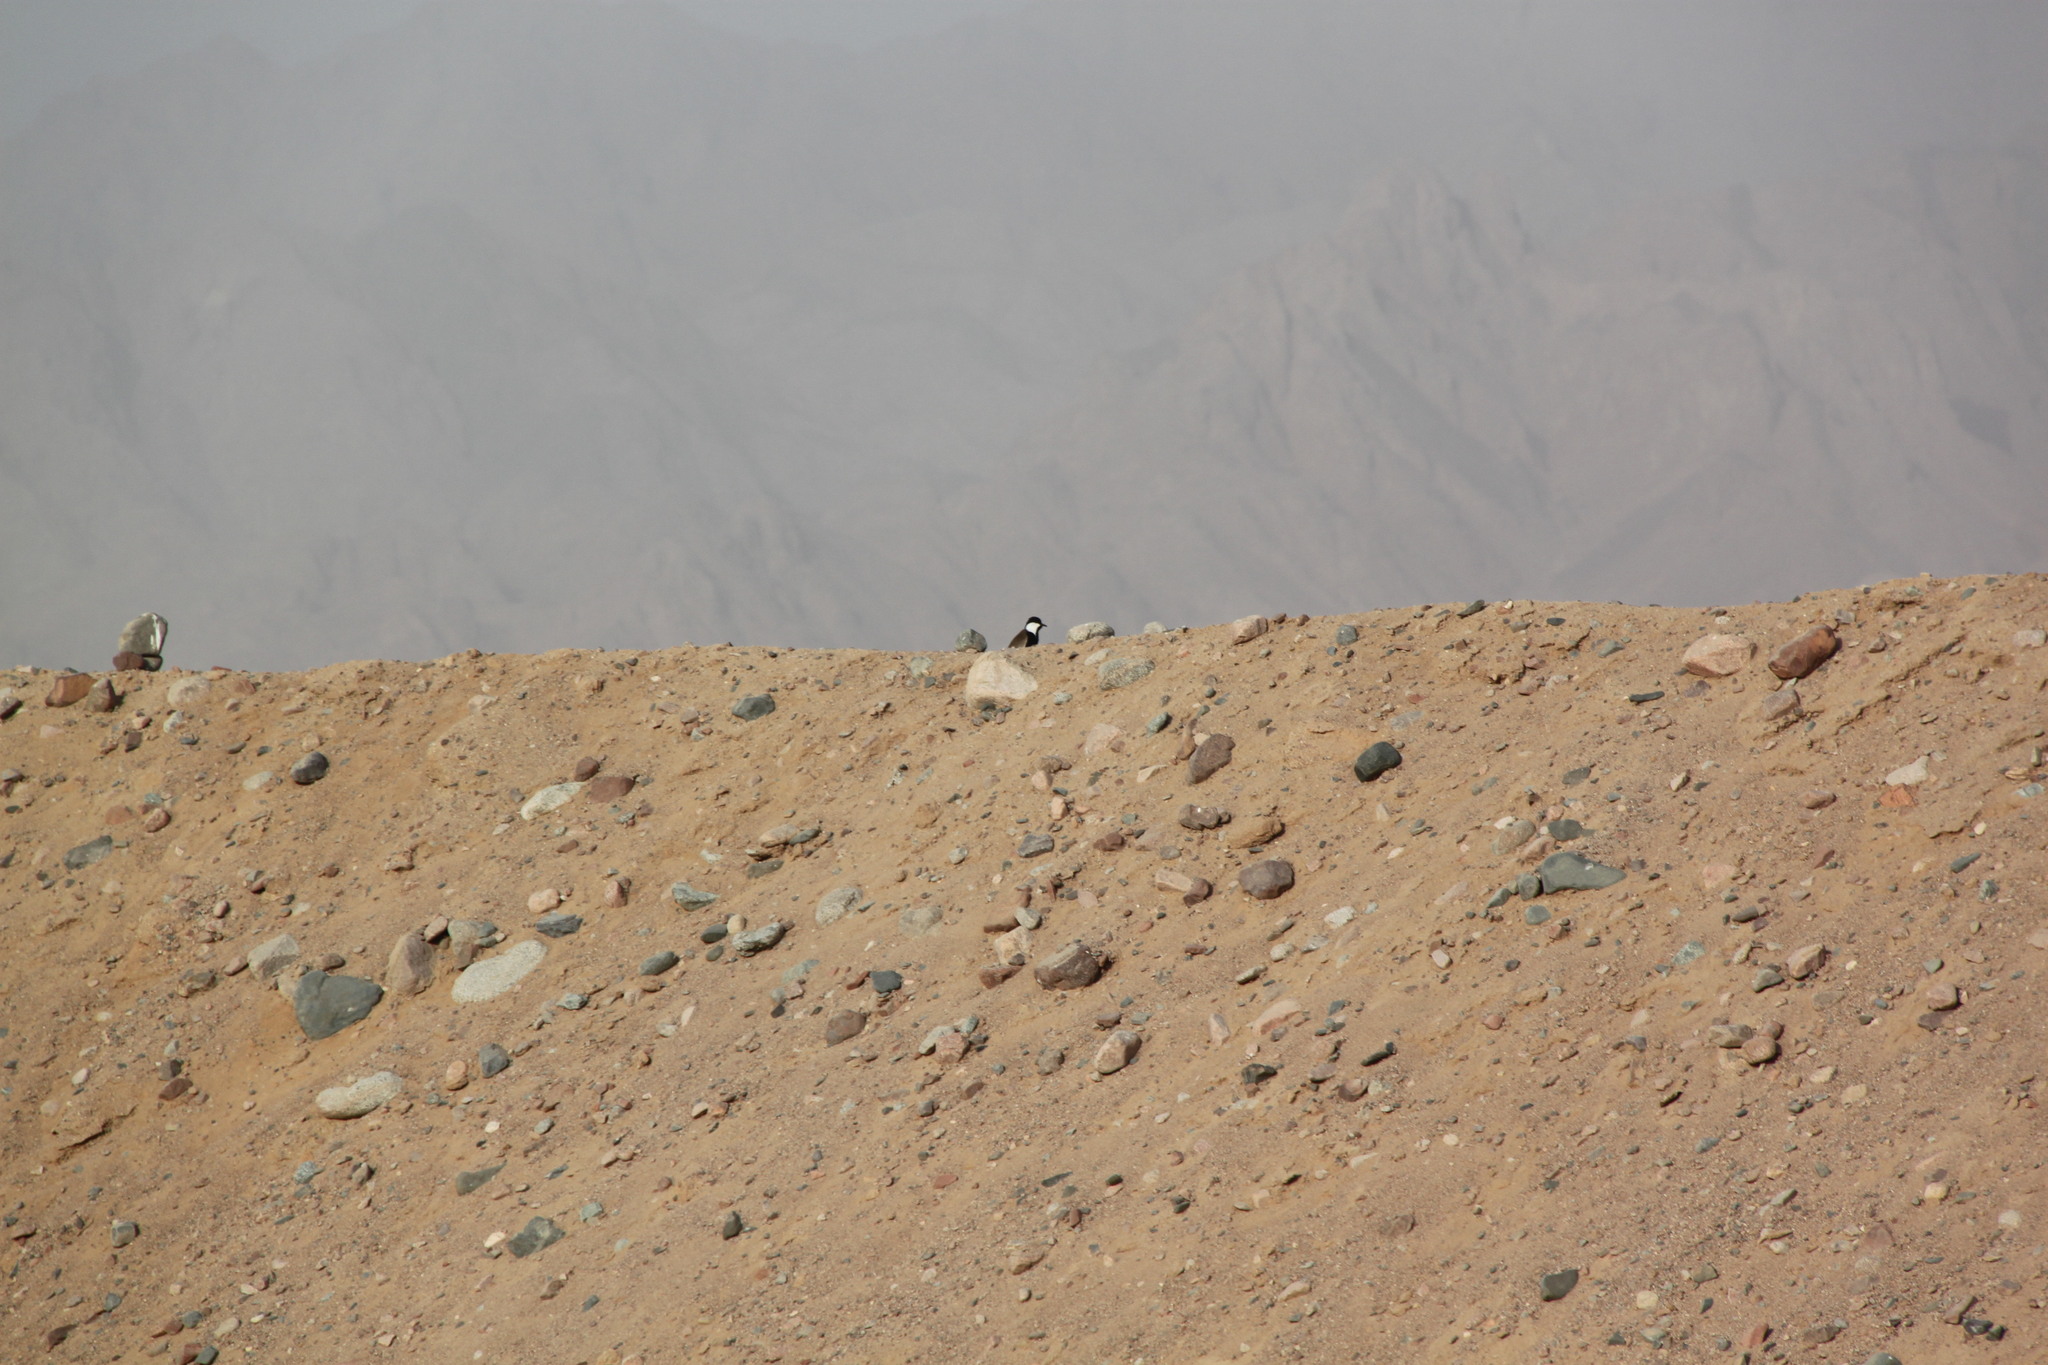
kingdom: Animalia
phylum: Chordata
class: Aves
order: Charadriiformes
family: Charadriidae
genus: Vanellus
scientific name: Vanellus spinosus
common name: Spur-winged lapwing
